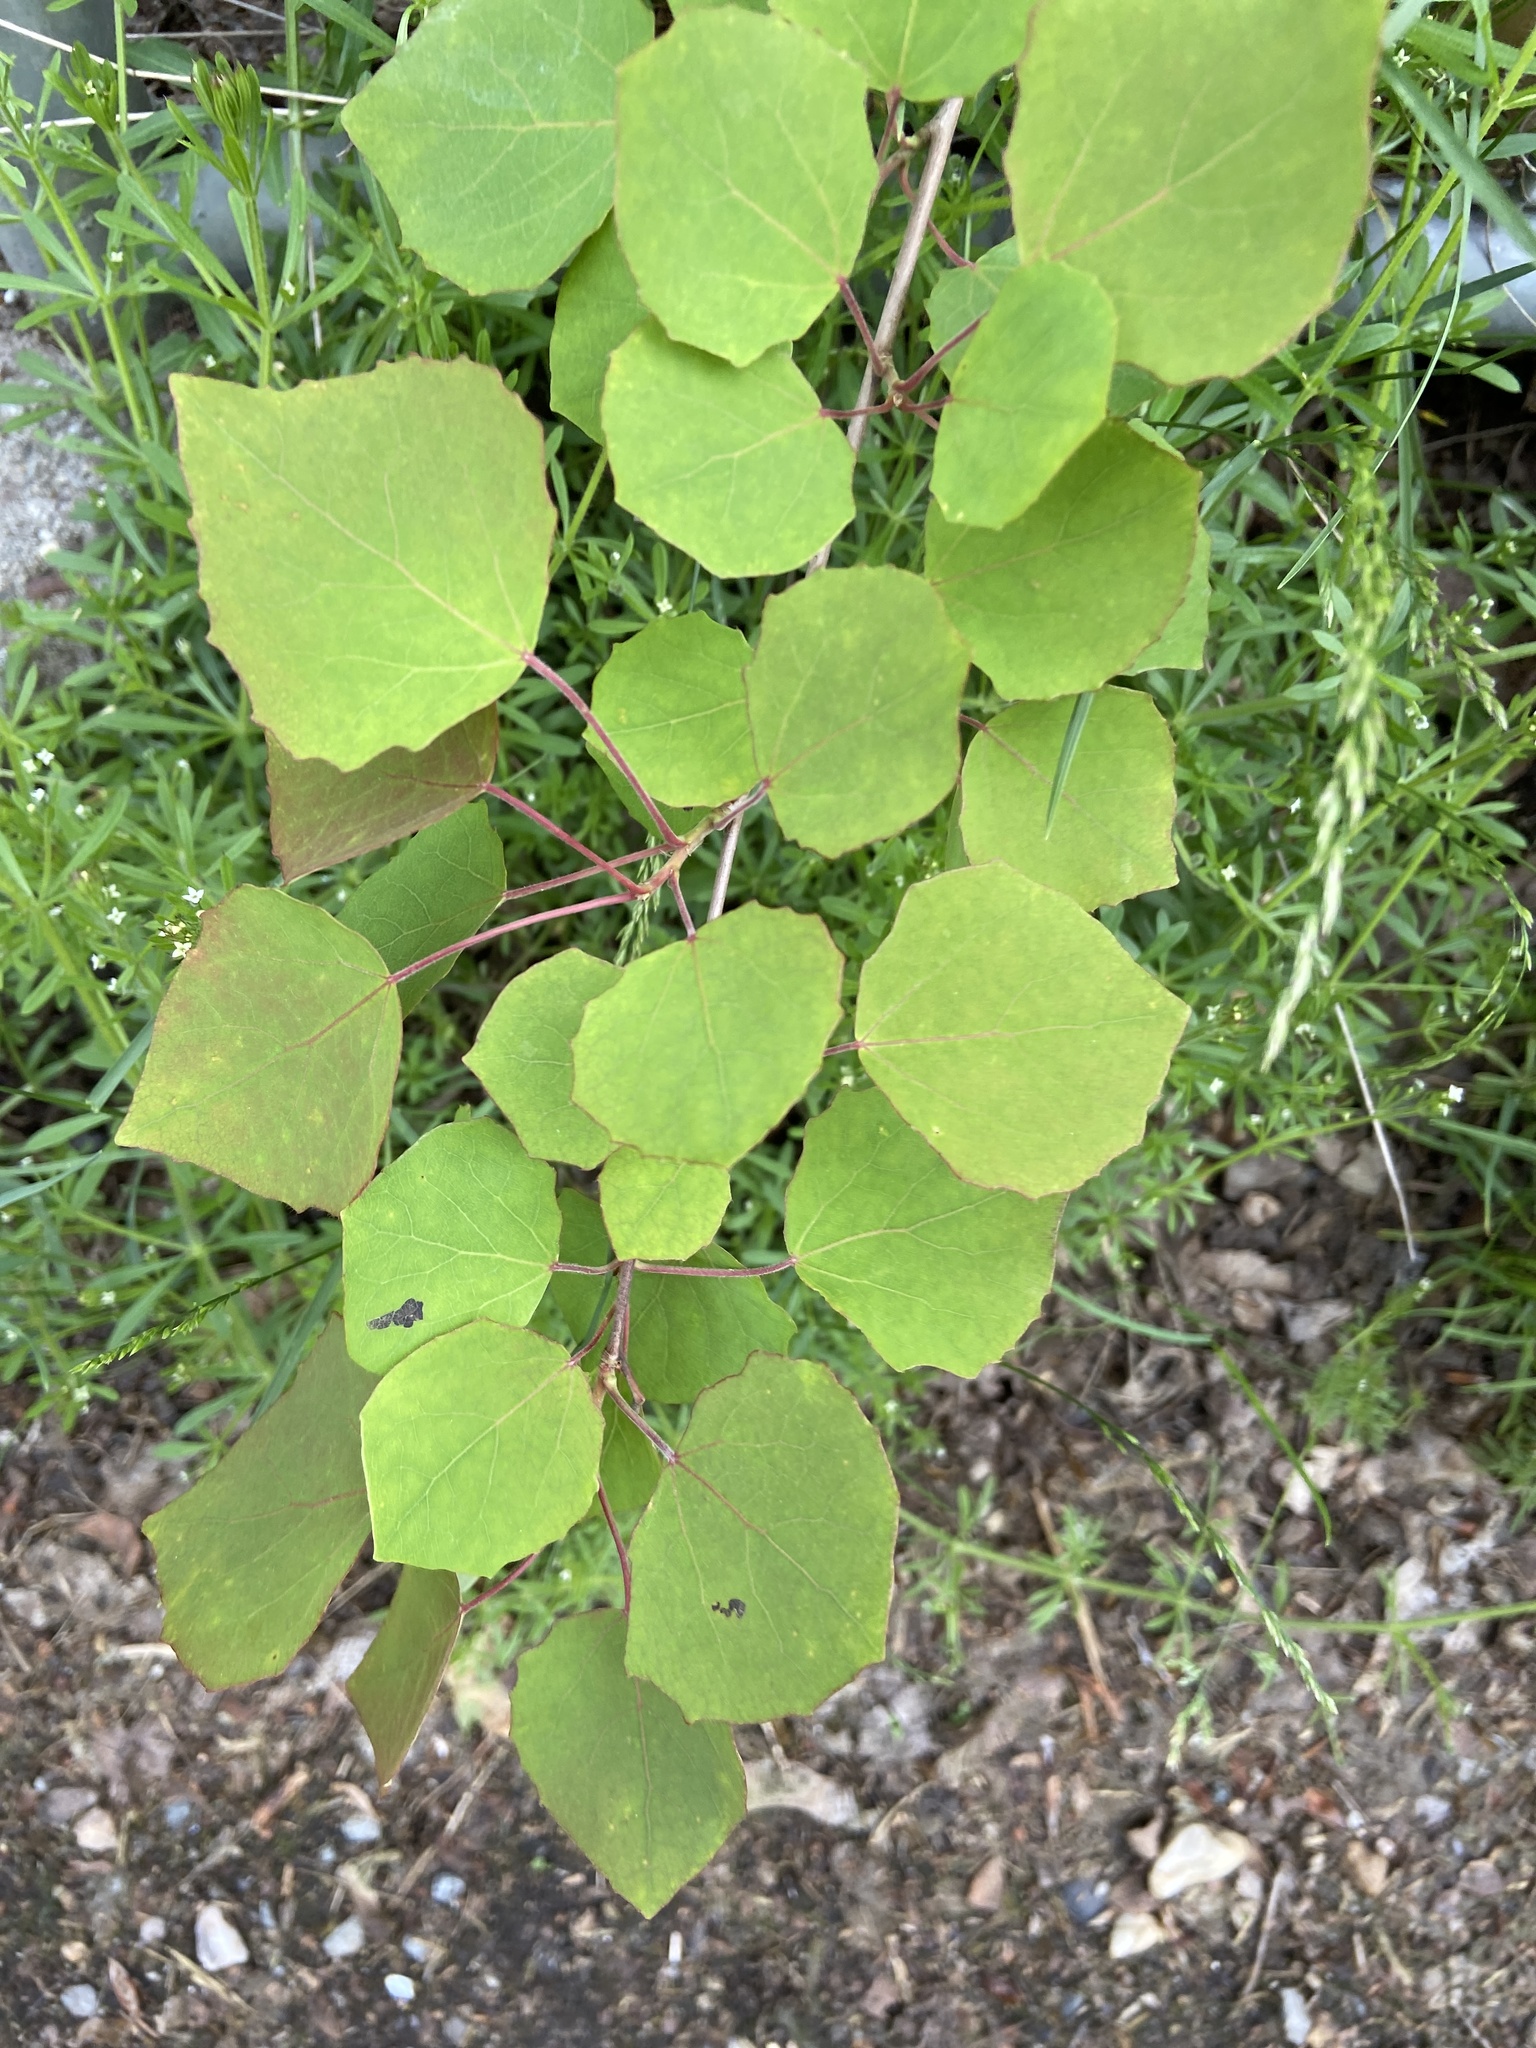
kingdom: Plantae
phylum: Tracheophyta
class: Magnoliopsida
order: Malpighiales
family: Salicaceae
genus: Populus
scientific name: Populus tremula
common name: European aspen
